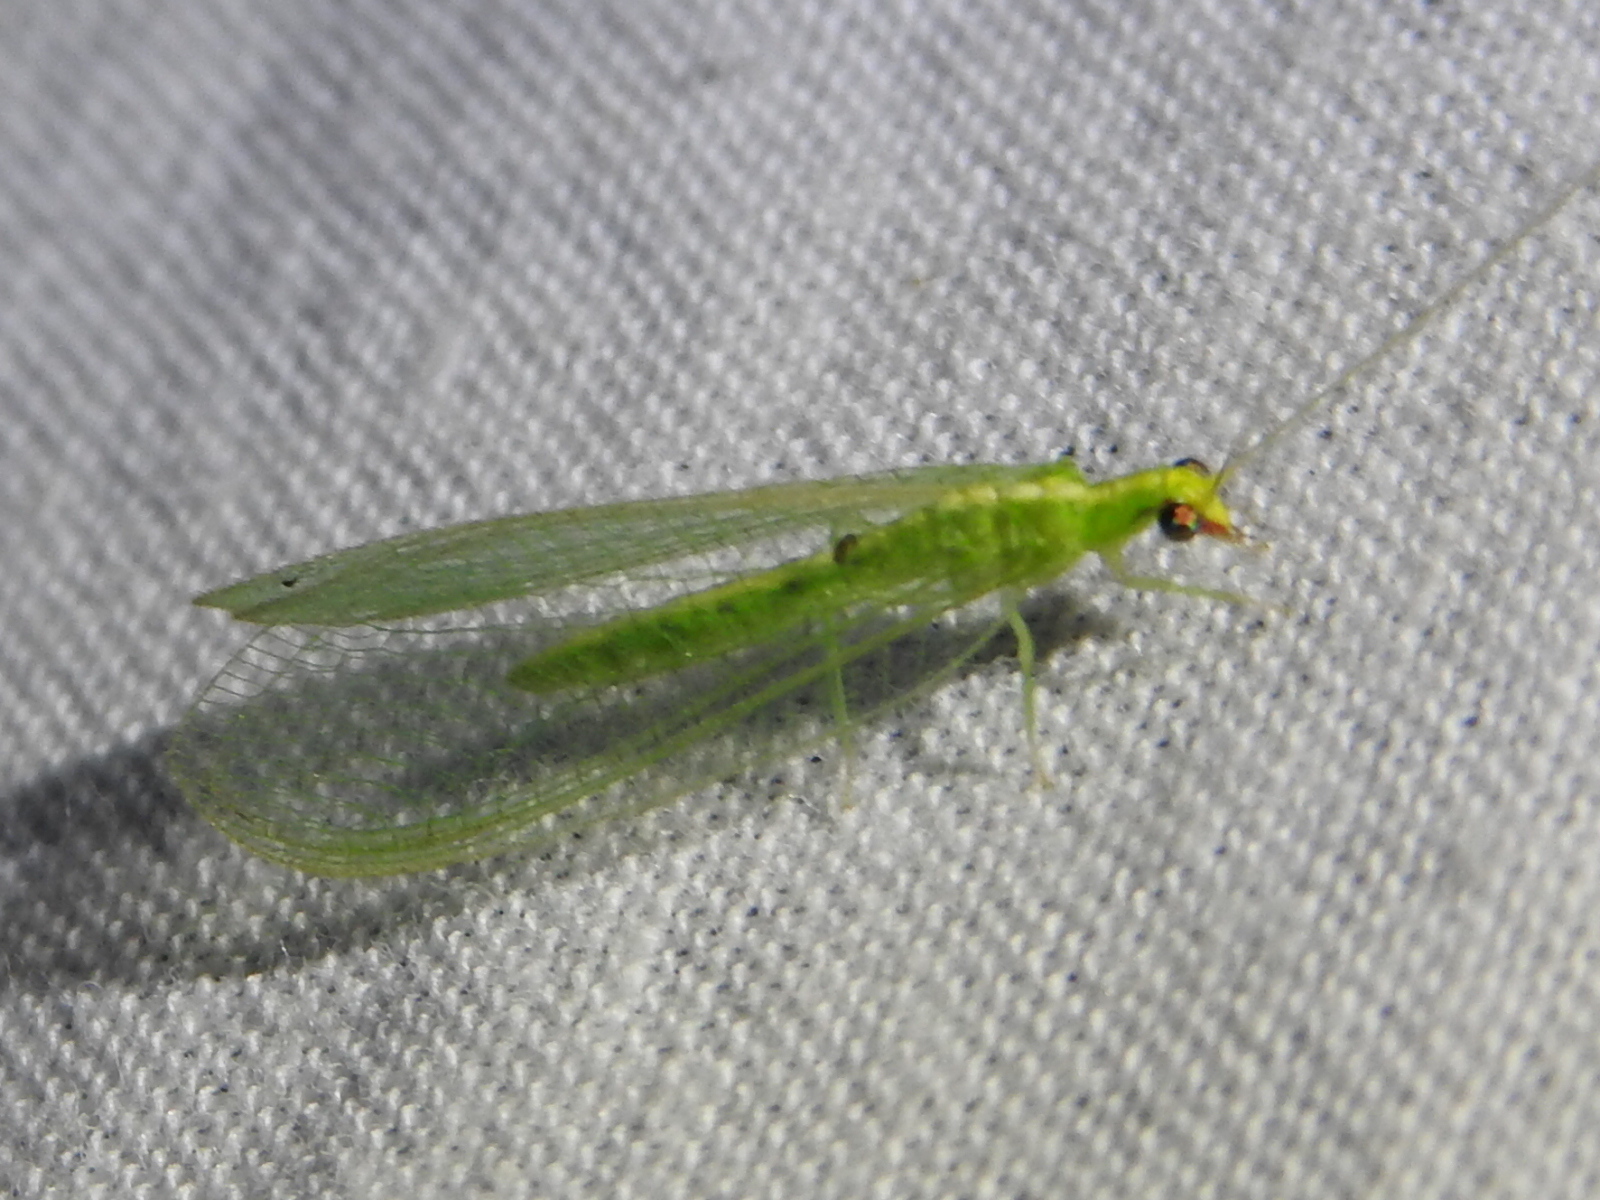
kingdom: Animalia
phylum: Arthropoda
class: Insecta
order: Neuroptera
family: Chrysopidae
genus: Chrysoperla
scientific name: Chrysoperla rufilabris
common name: Red-lipped green lacewing
